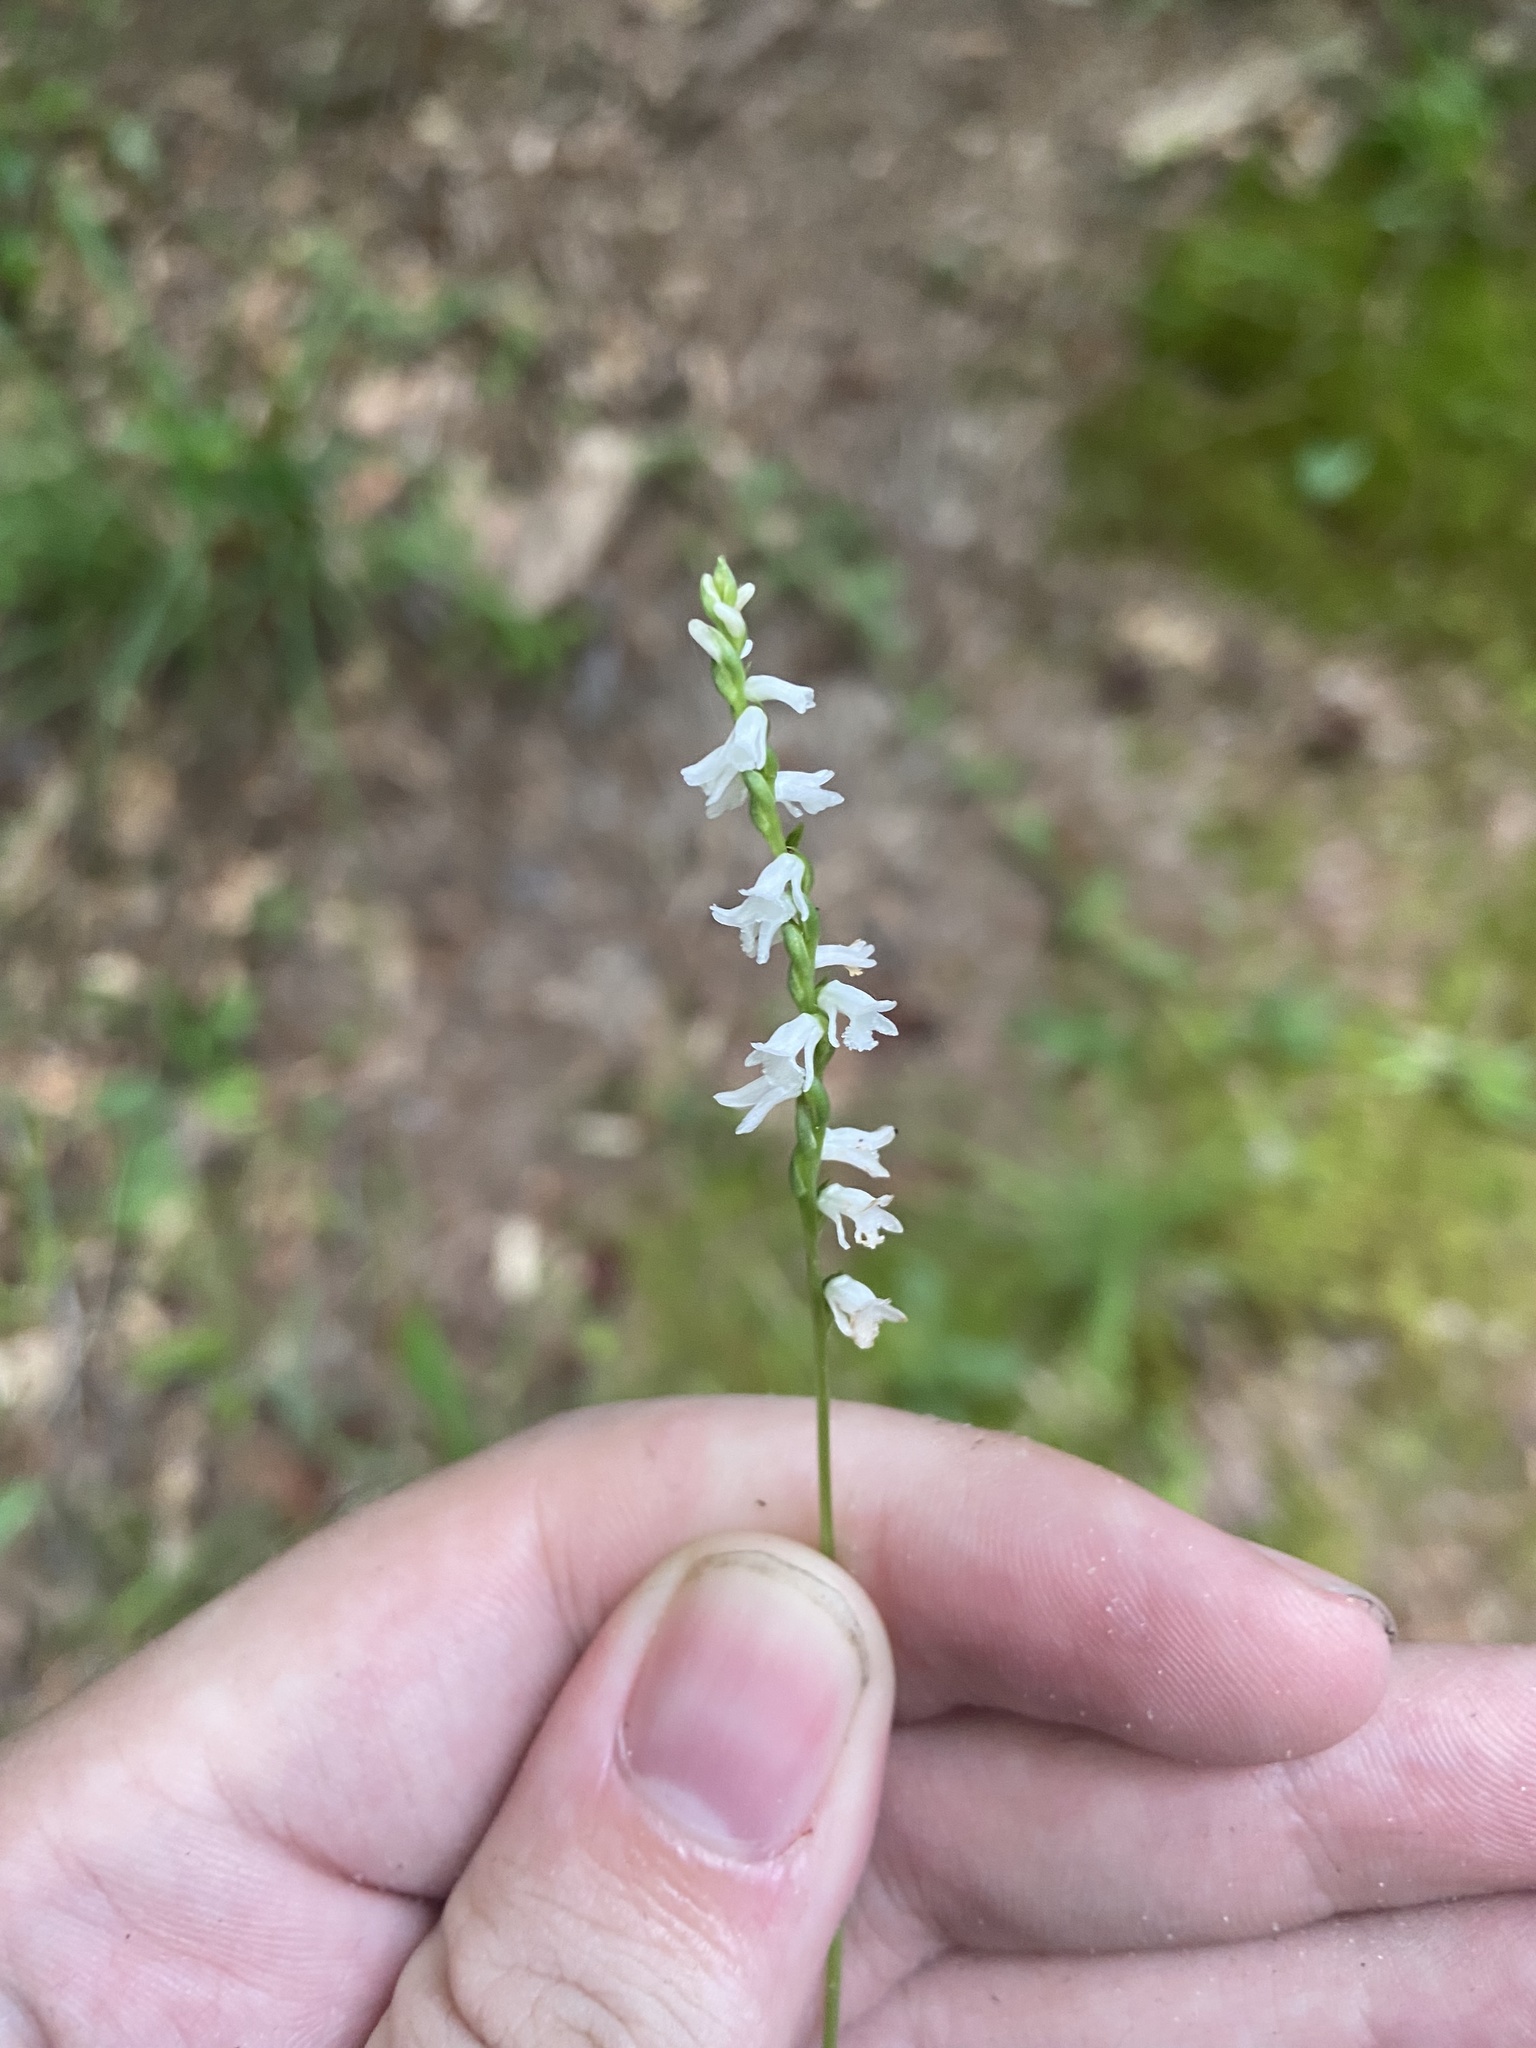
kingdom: Plantae
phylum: Tracheophyta
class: Liliopsida
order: Asparagales
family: Orchidaceae
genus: Spiranthes
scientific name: Spiranthes tuberosa
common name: Little ladies'-tresses
